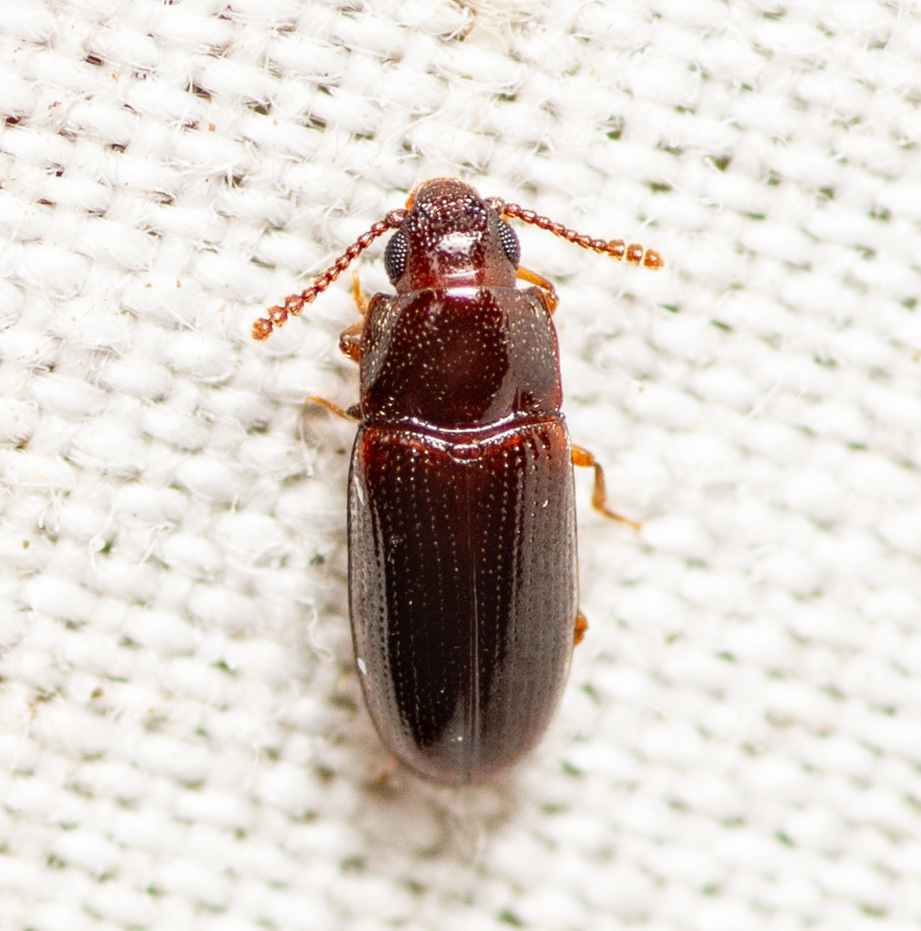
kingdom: Animalia
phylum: Arthropoda
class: Insecta
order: Coleoptera
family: Erotylidae
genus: Pharaxonotha
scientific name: Pharaxonotha kirschii
